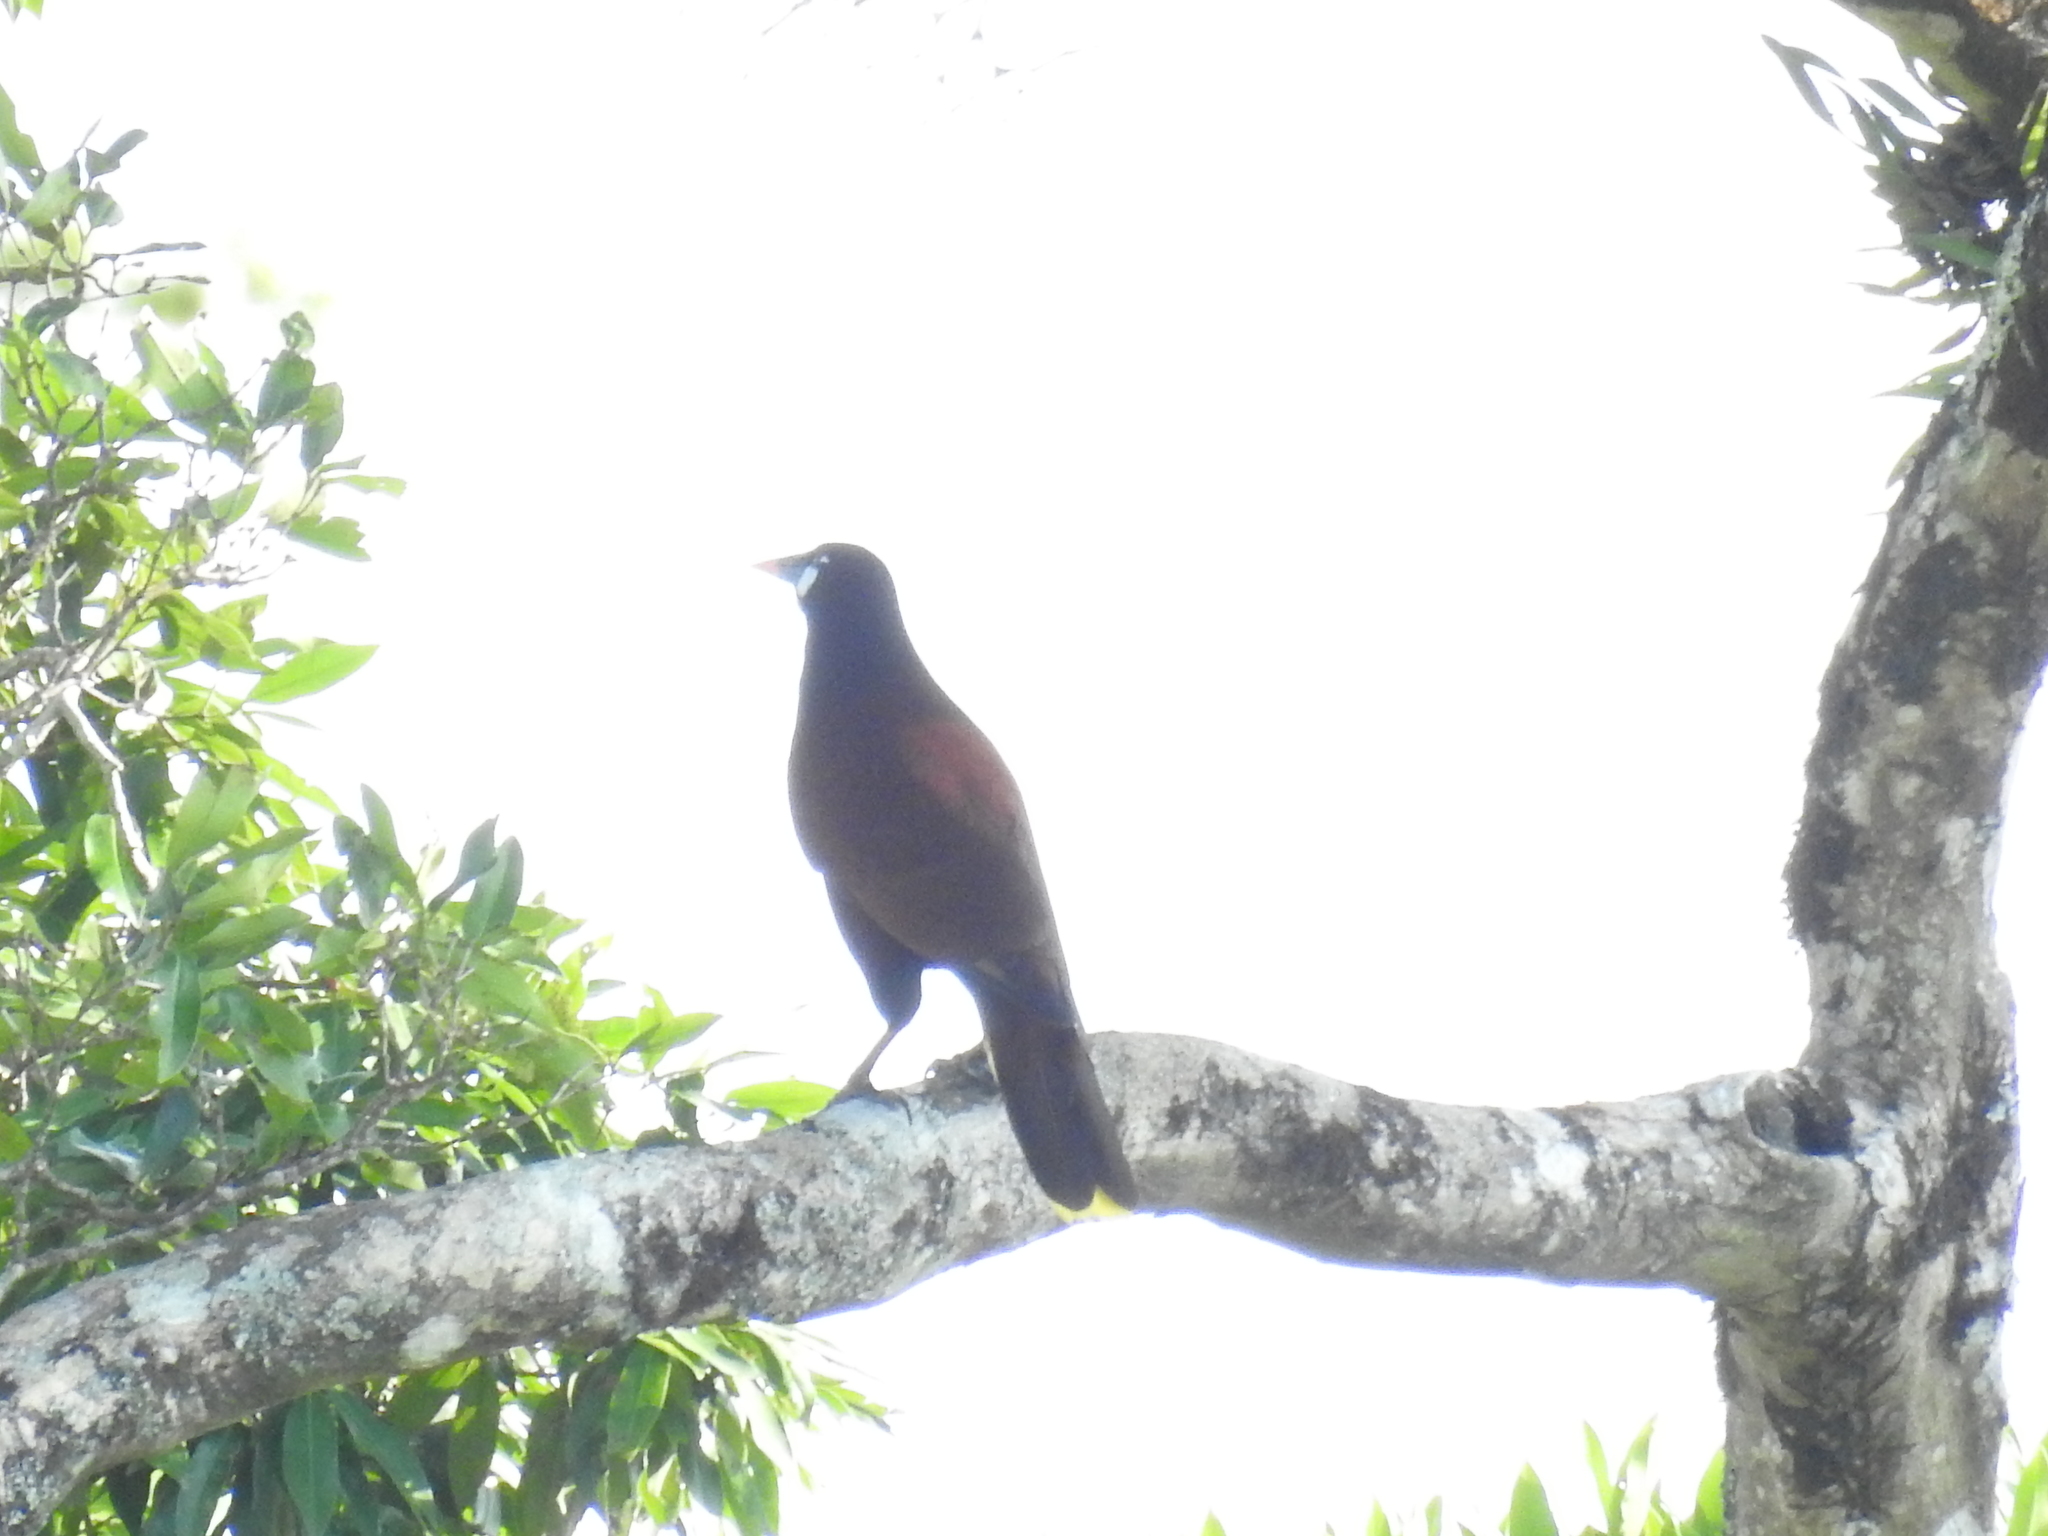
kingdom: Animalia
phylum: Chordata
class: Aves
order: Passeriformes
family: Icteridae
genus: Psarocolius
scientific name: Psarocolius montezuma
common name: Montezuma oropendola
